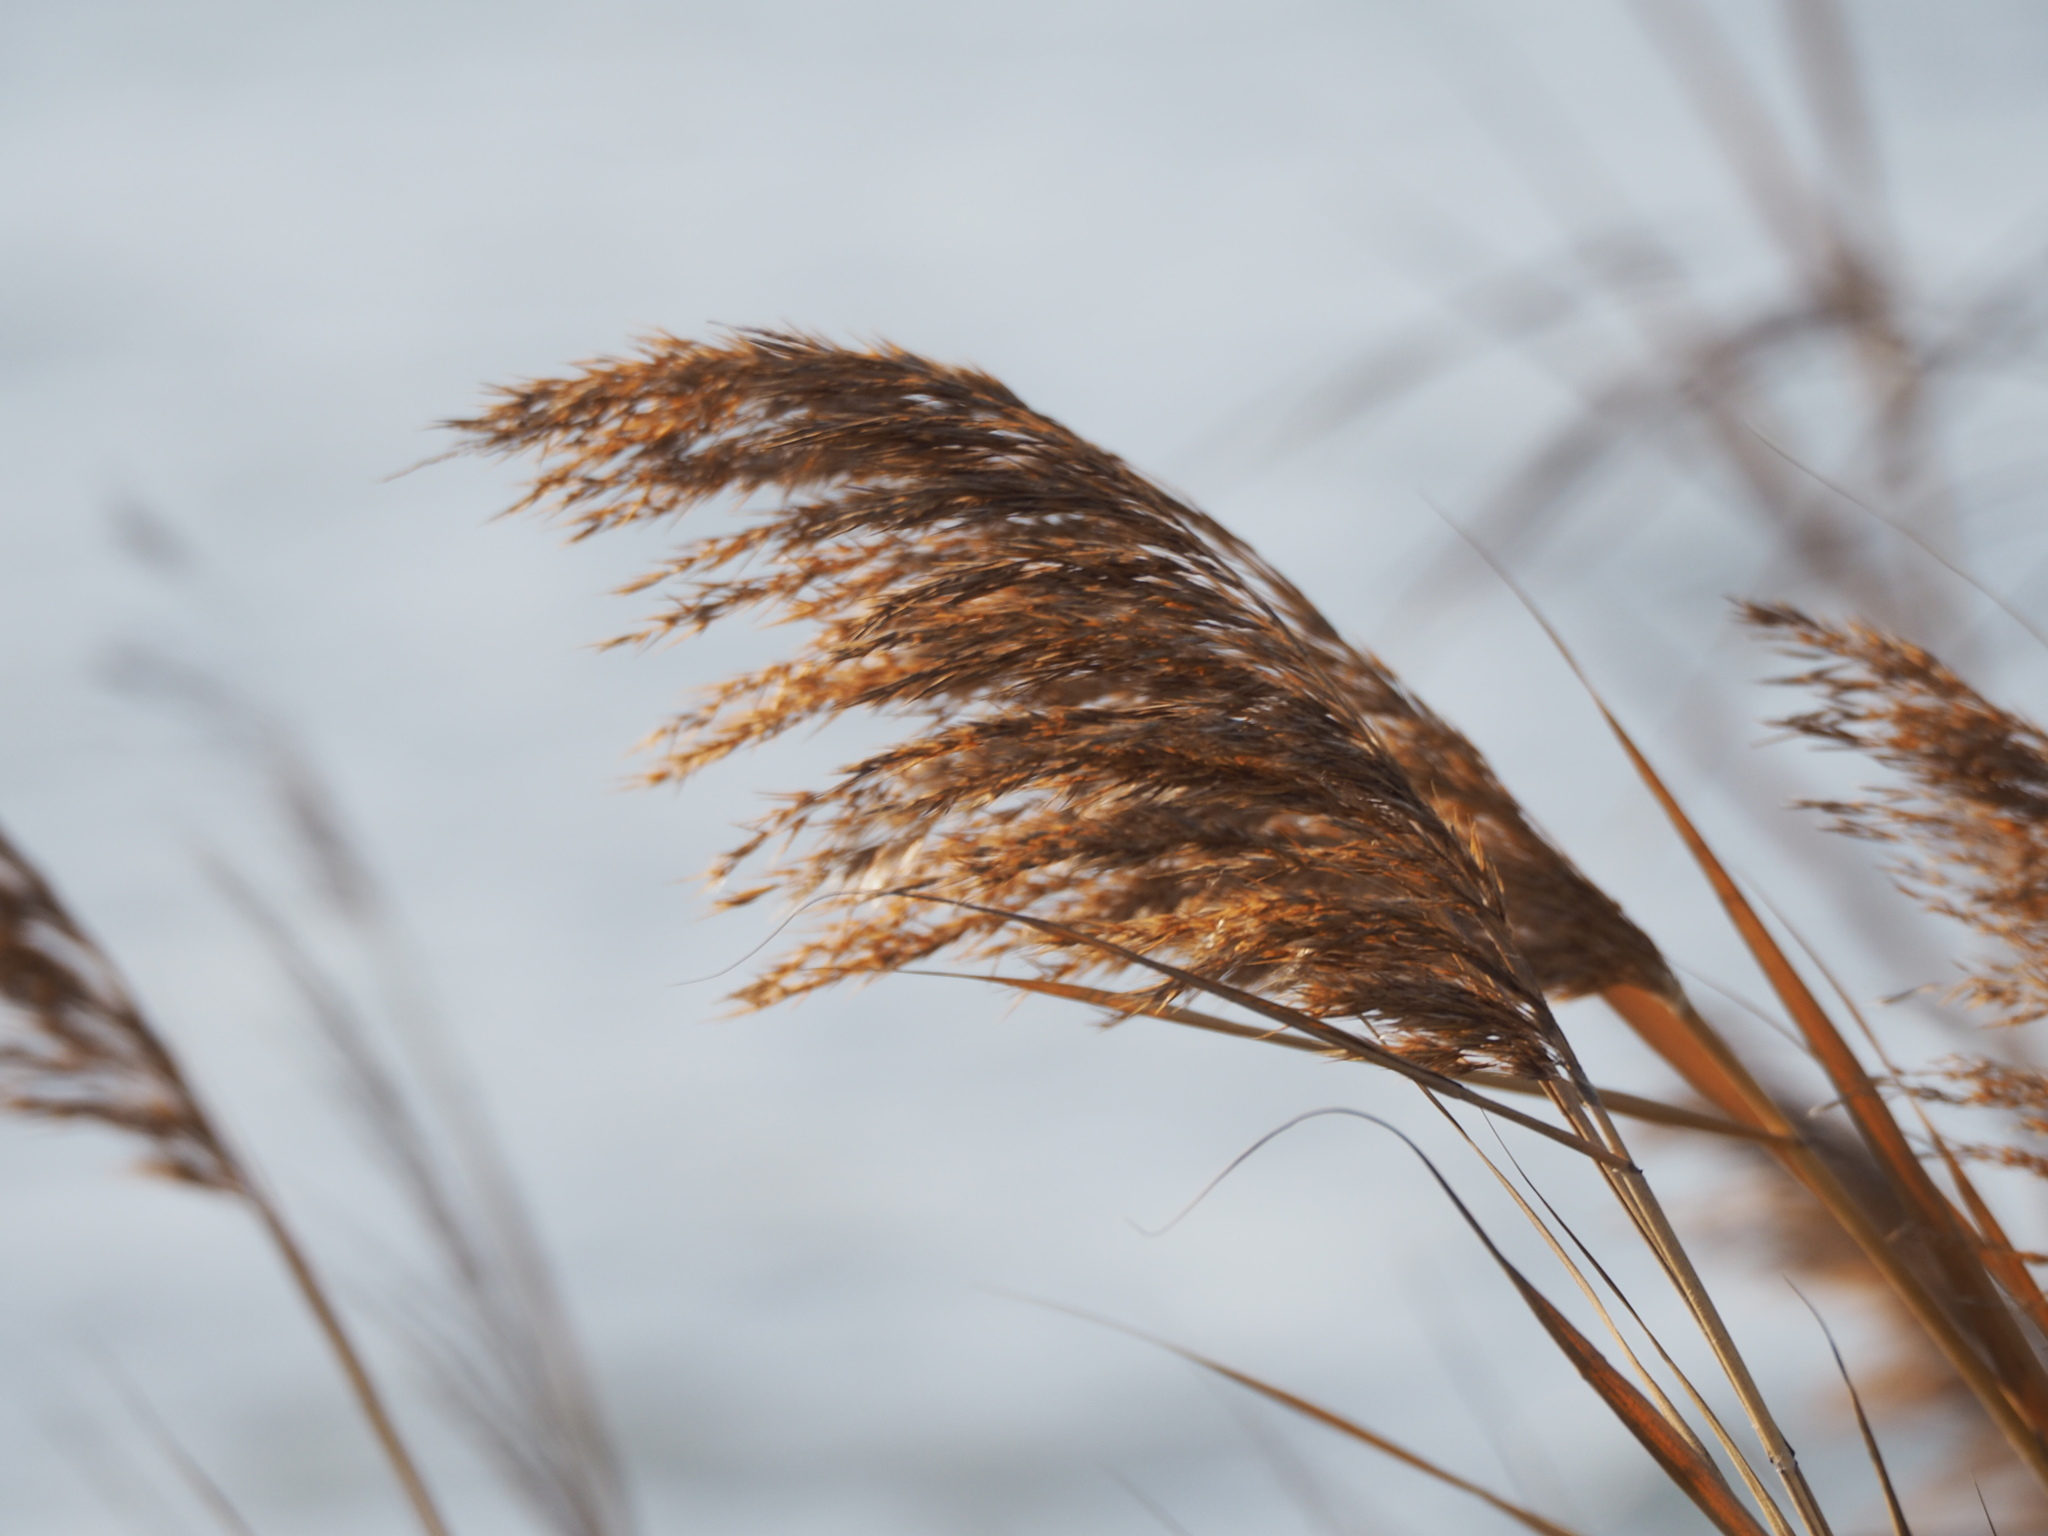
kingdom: Plantae
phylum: Tracheophyta
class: Liliopsida
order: Poales
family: Poaceae
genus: Phragmites
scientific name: Phragmites australis
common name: Common reed
